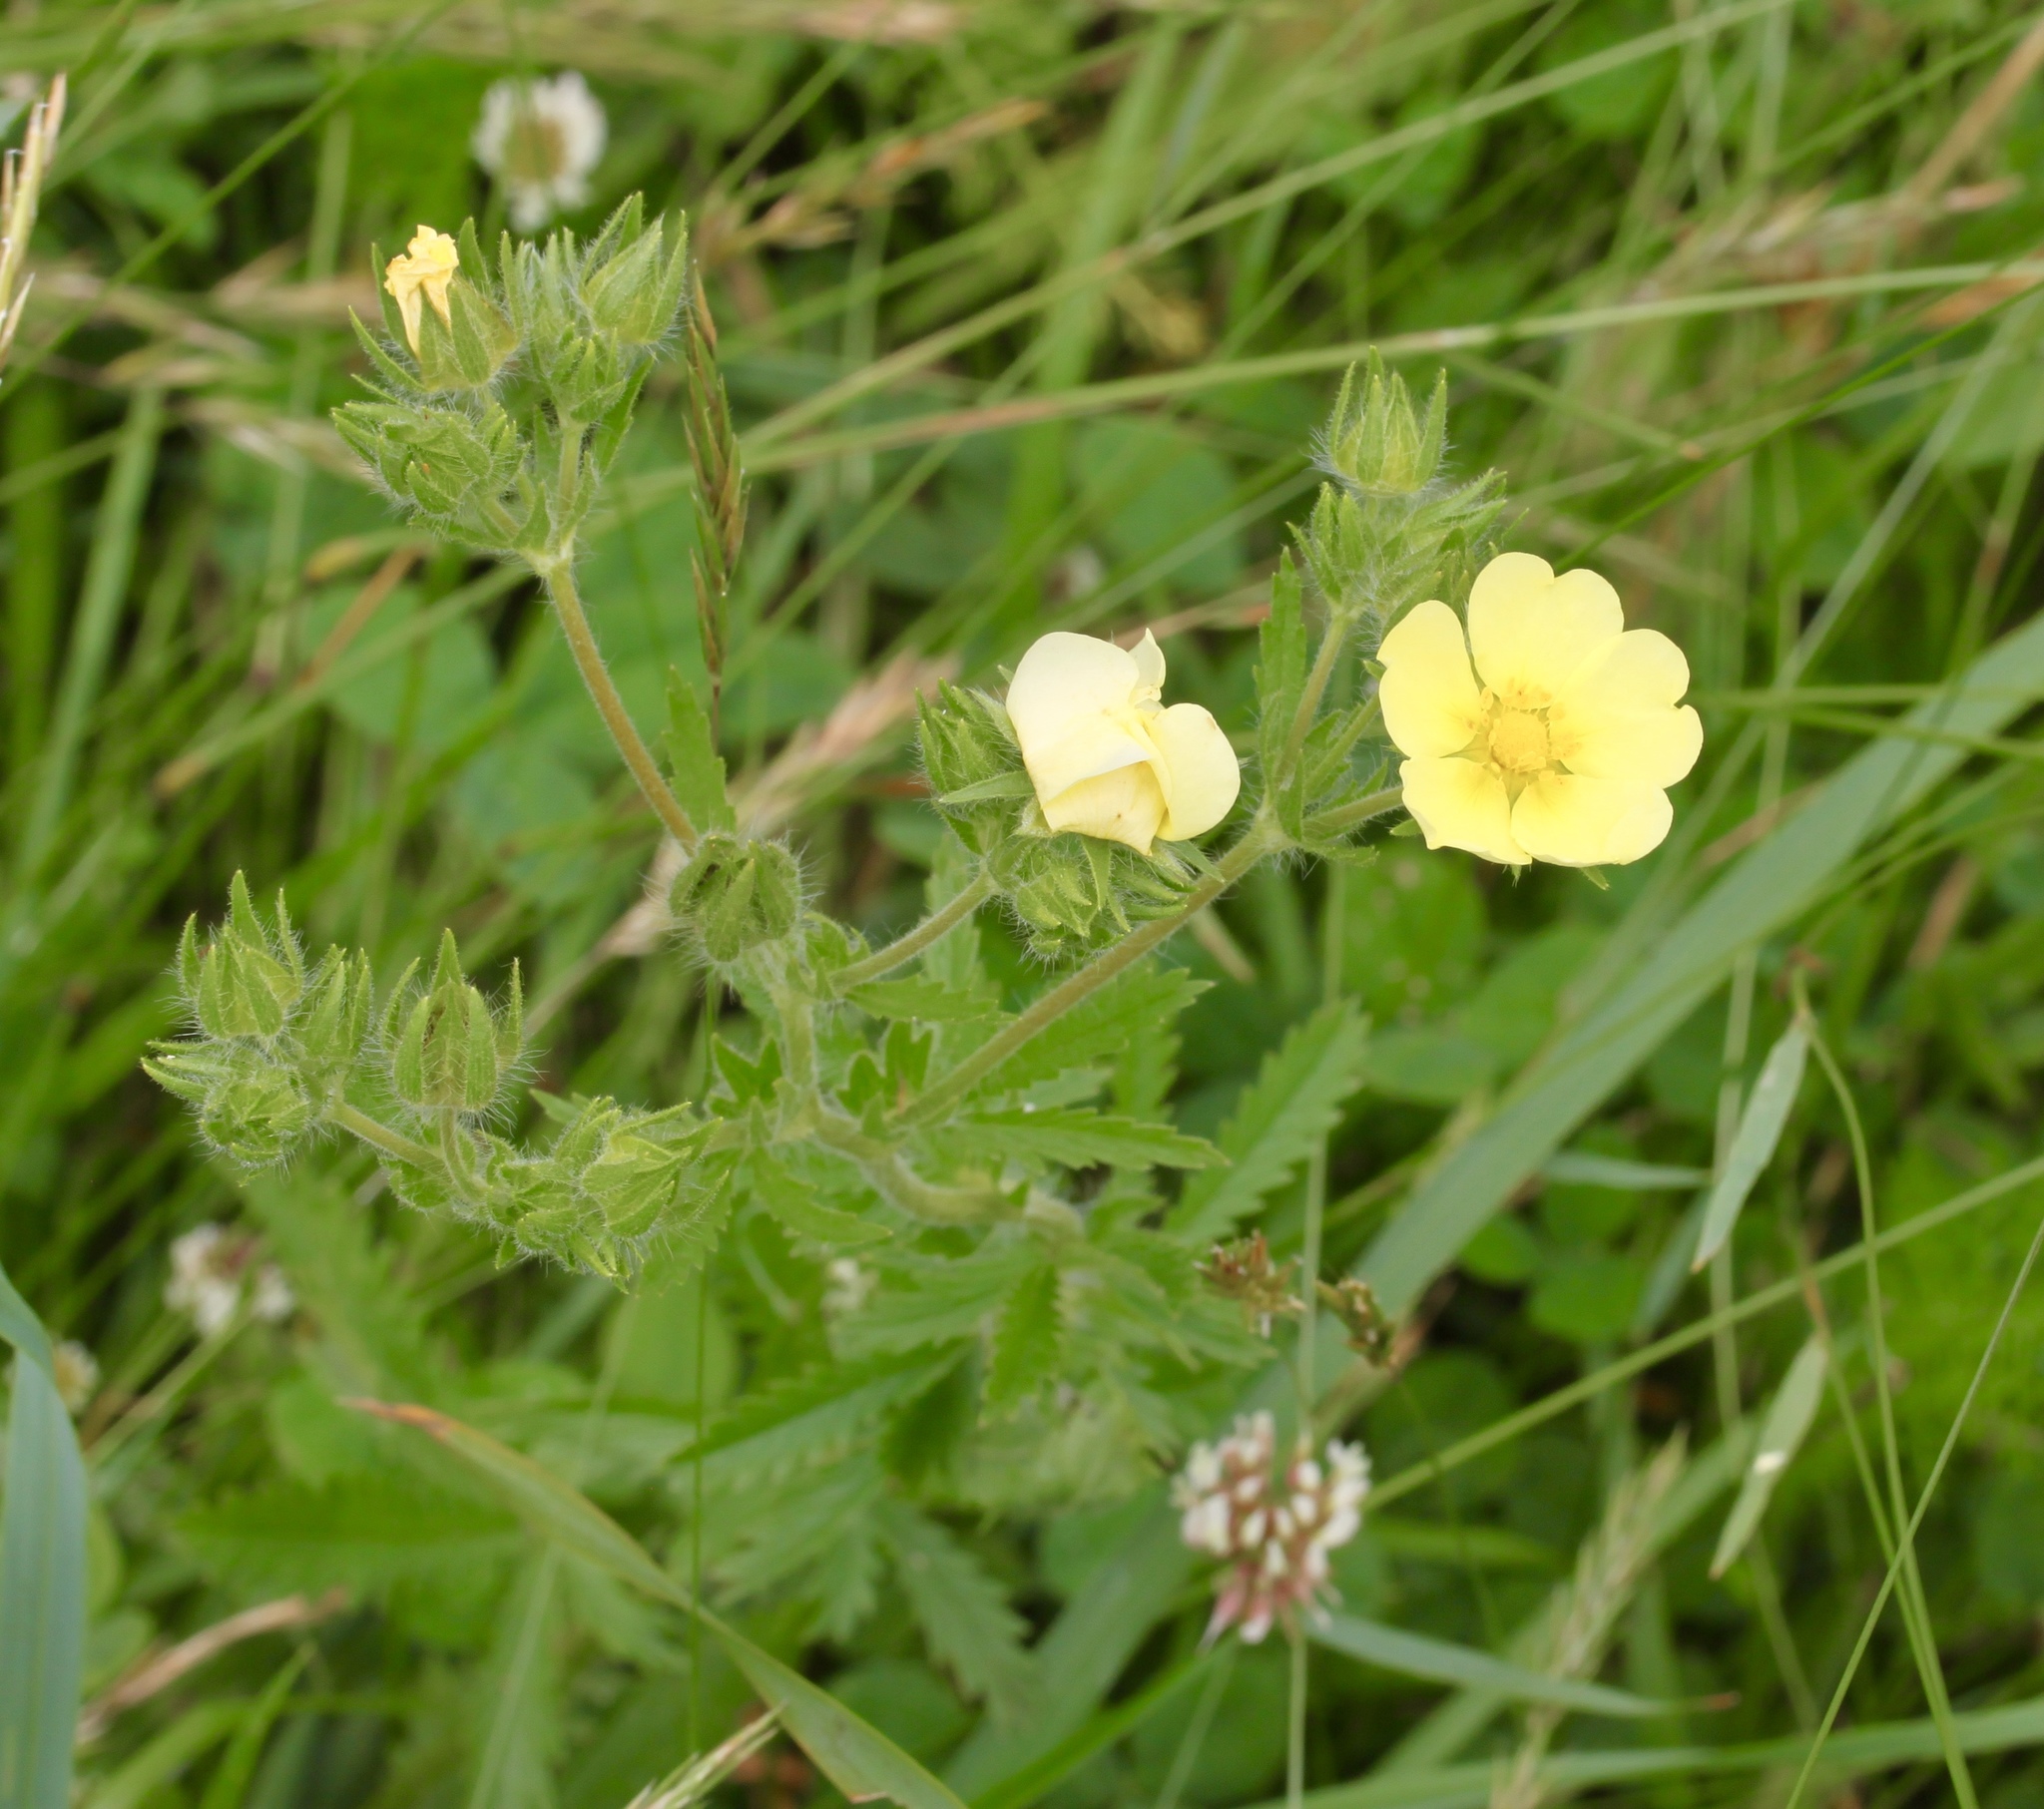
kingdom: Plantae
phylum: Tracheophyta
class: Magnoliopsida
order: Rosales
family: Rosaceae
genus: Potentilla
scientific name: Potentilla recta
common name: Sulphur cinquefoil
